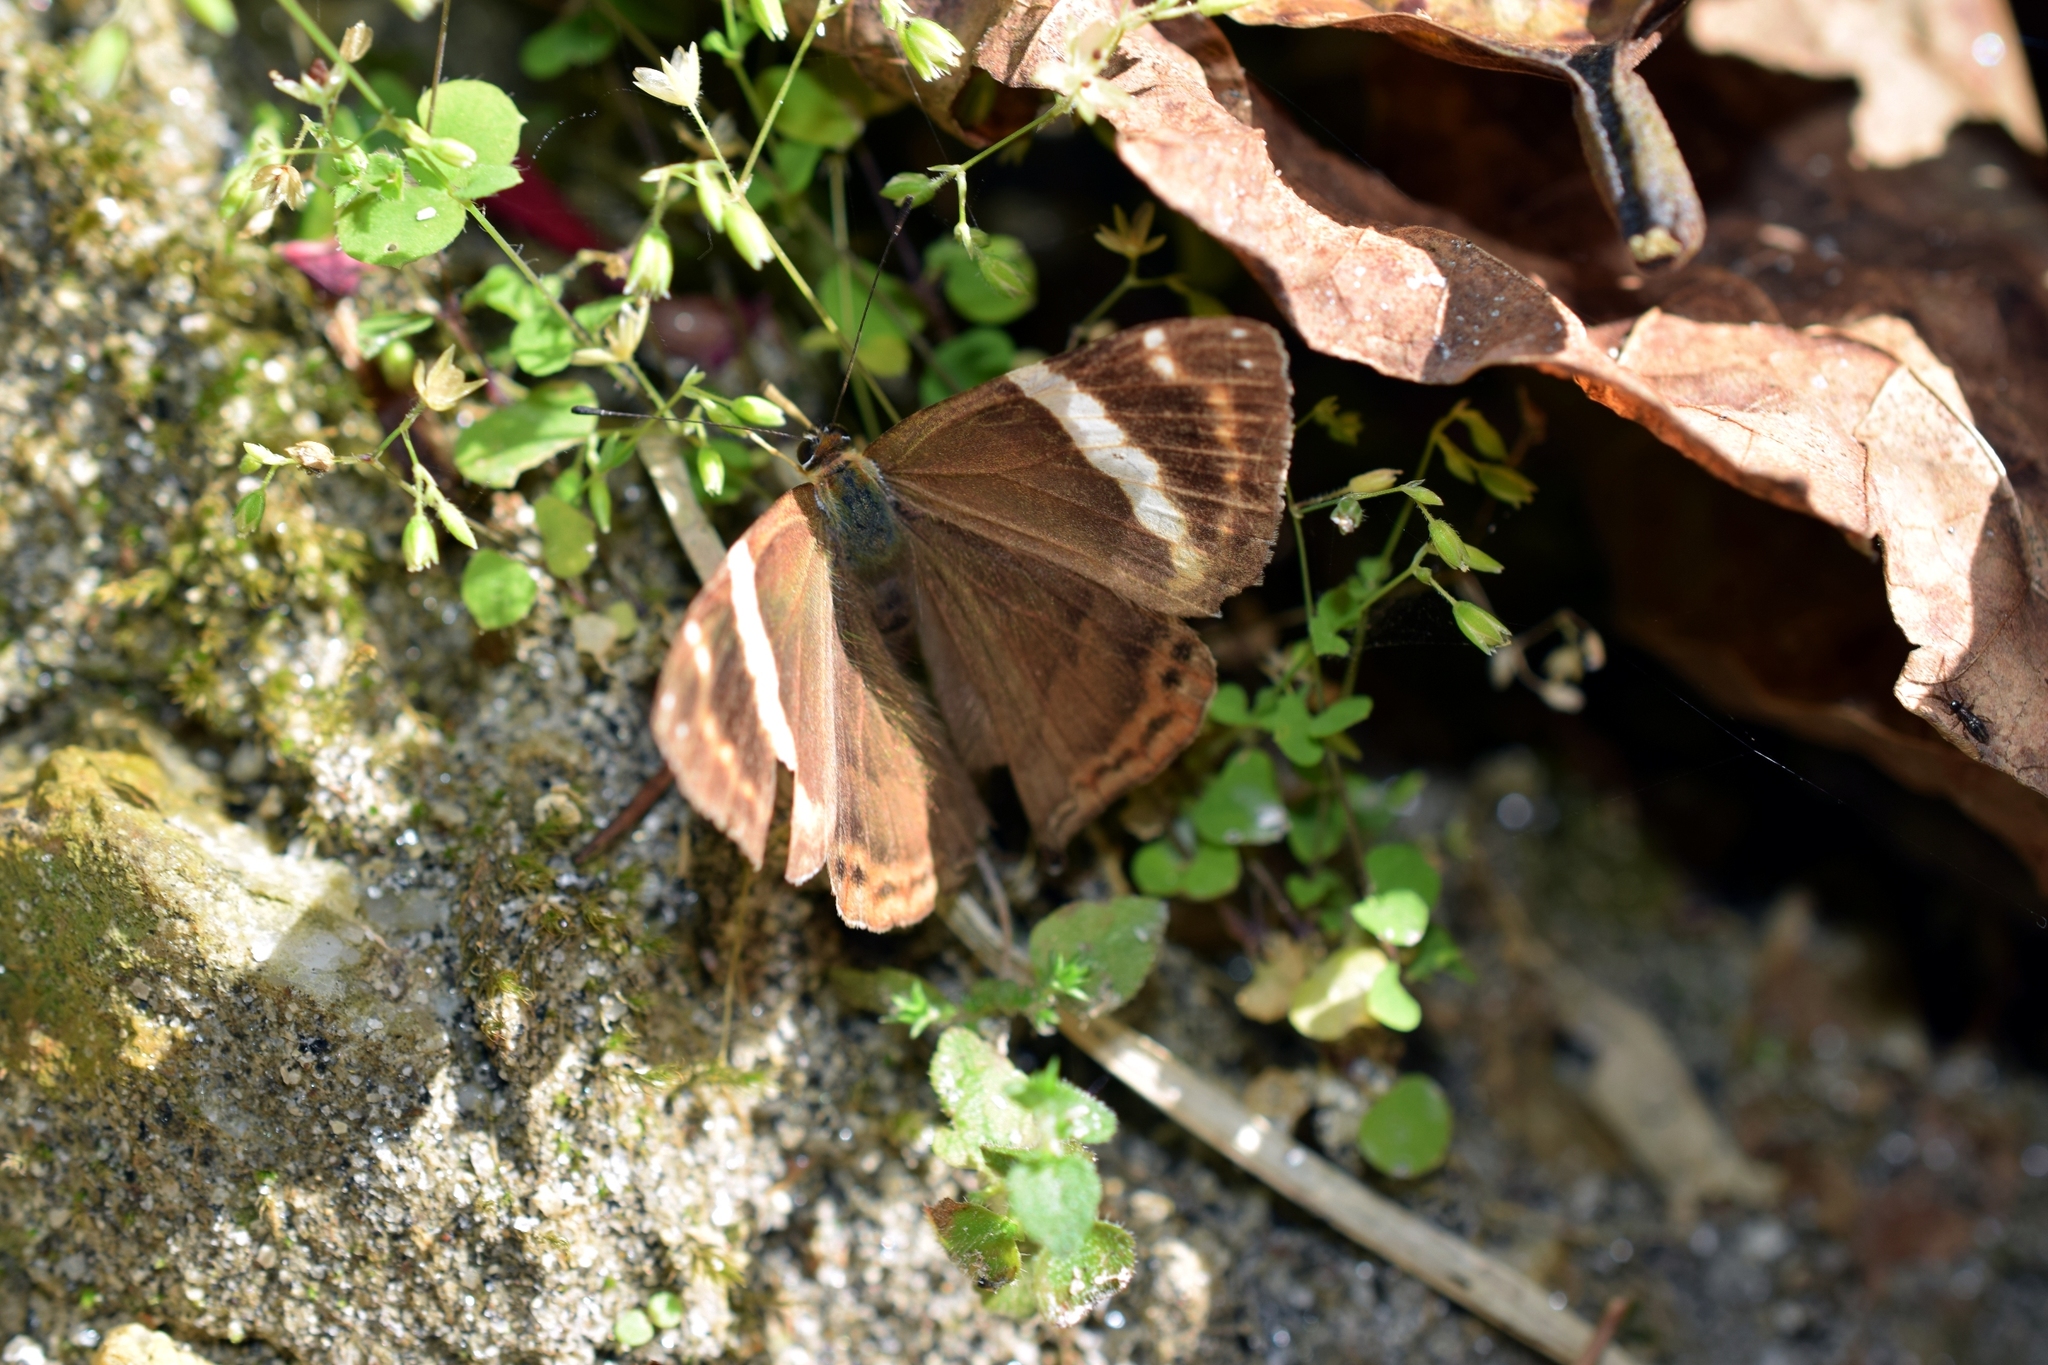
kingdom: Animalia
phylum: Arthropoda
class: Insecta
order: Lepidoptera
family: Lycaenidae
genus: Abisara
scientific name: Abisara fylla
